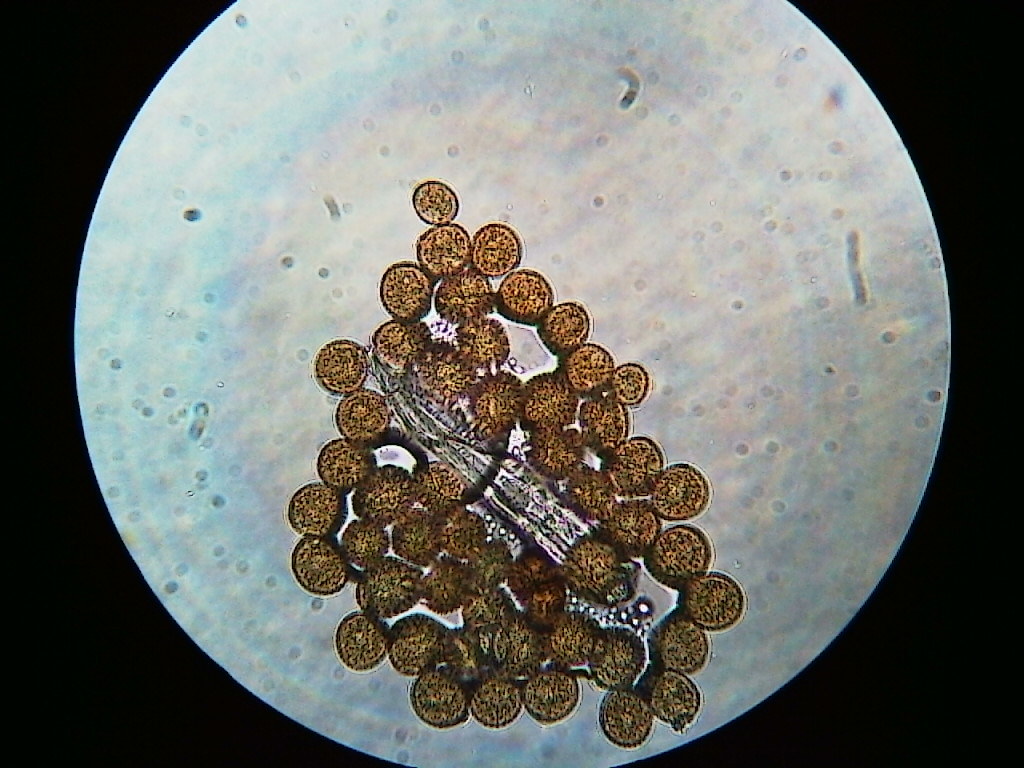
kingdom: Fungi
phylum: Basidiomycota
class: Pucciniomycetes
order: Pucciniales
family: Pucciniaceae
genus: Puccinia
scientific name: Puccinia orbicula
